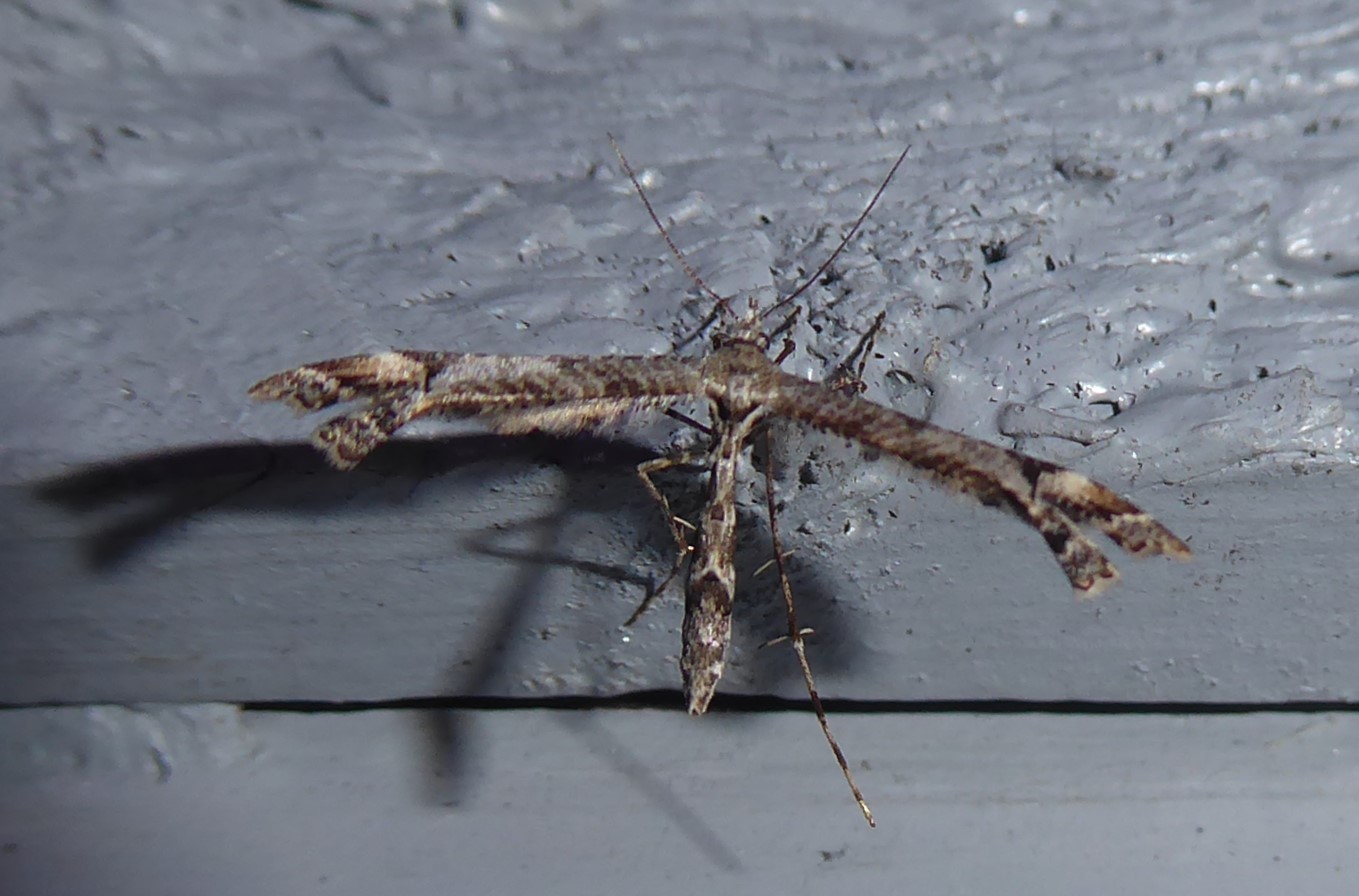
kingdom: Animalia
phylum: Arthropoda
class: Insecta
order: Lepidoptera
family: Pterophoridae
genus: Amblyptilia
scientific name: Amblyptilia repletalis
